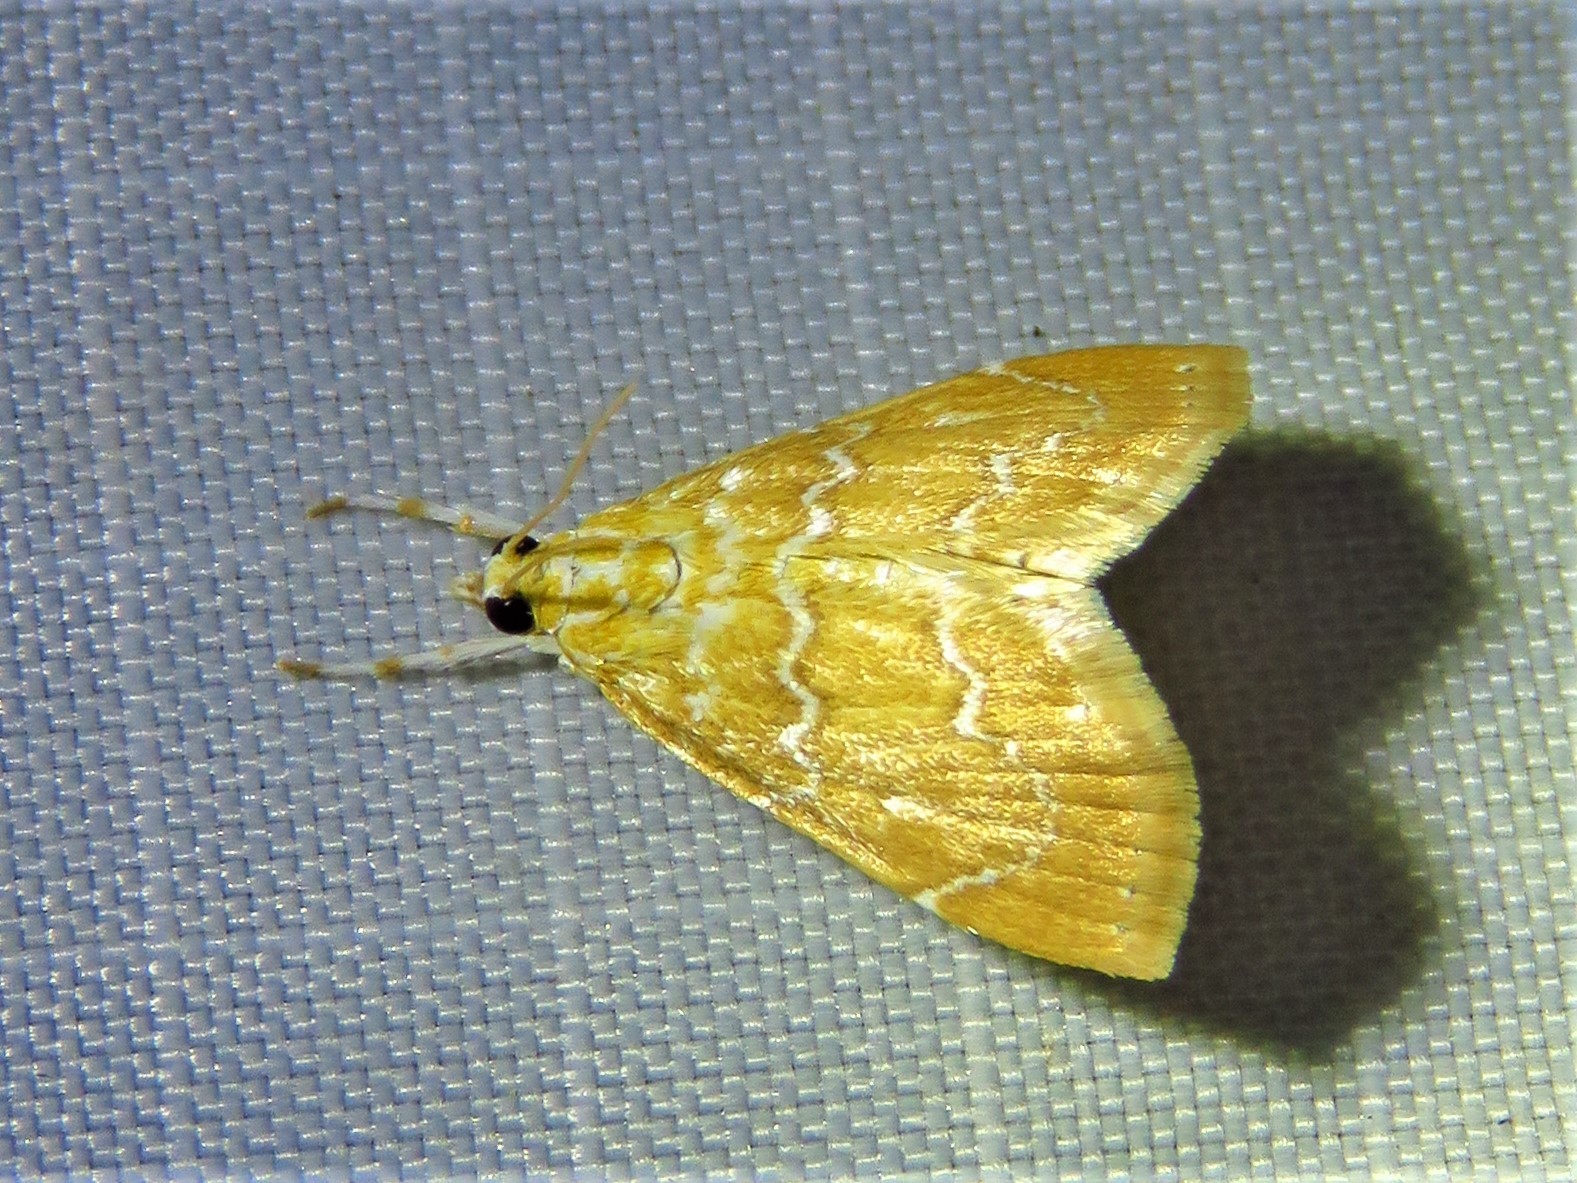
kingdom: Animalia
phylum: Arthropoda
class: Insecta
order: Lepidoptera
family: Crambidae
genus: Glaphyria
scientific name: Glaphyria sesquistrialis
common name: White-roped glaphyria
